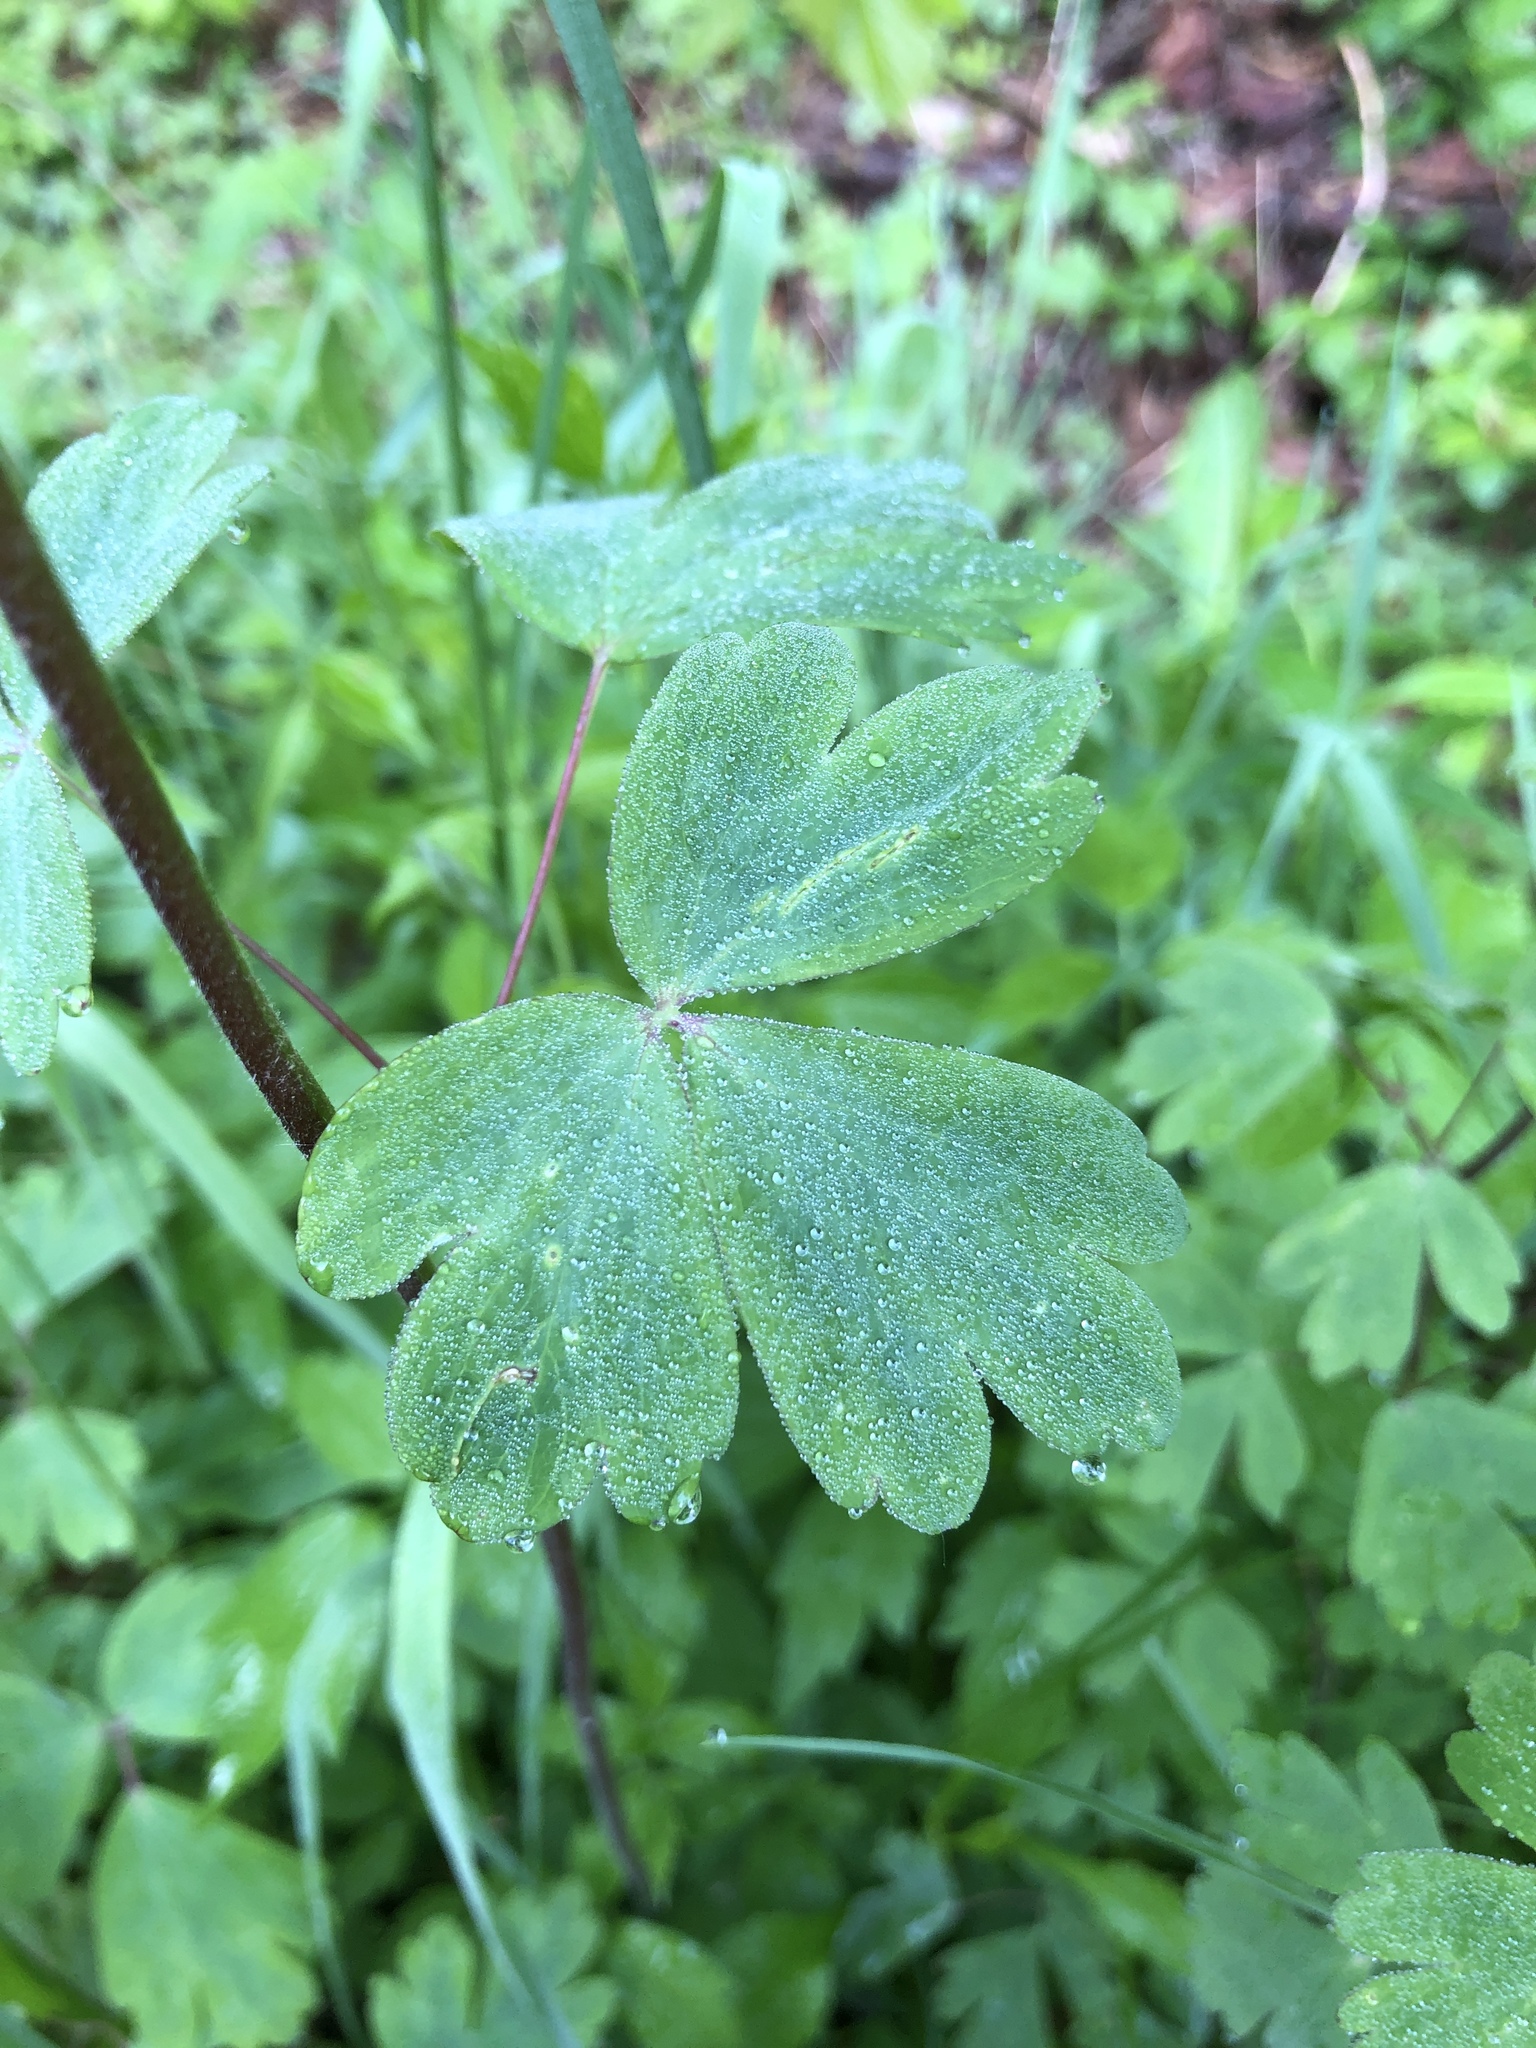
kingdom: Plantae
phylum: Tracheophyta
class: Magnoliopsida
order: Ranunculales
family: Ranunculaceae
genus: Aquilegia
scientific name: Aquilegia canadensis
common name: American columbine
